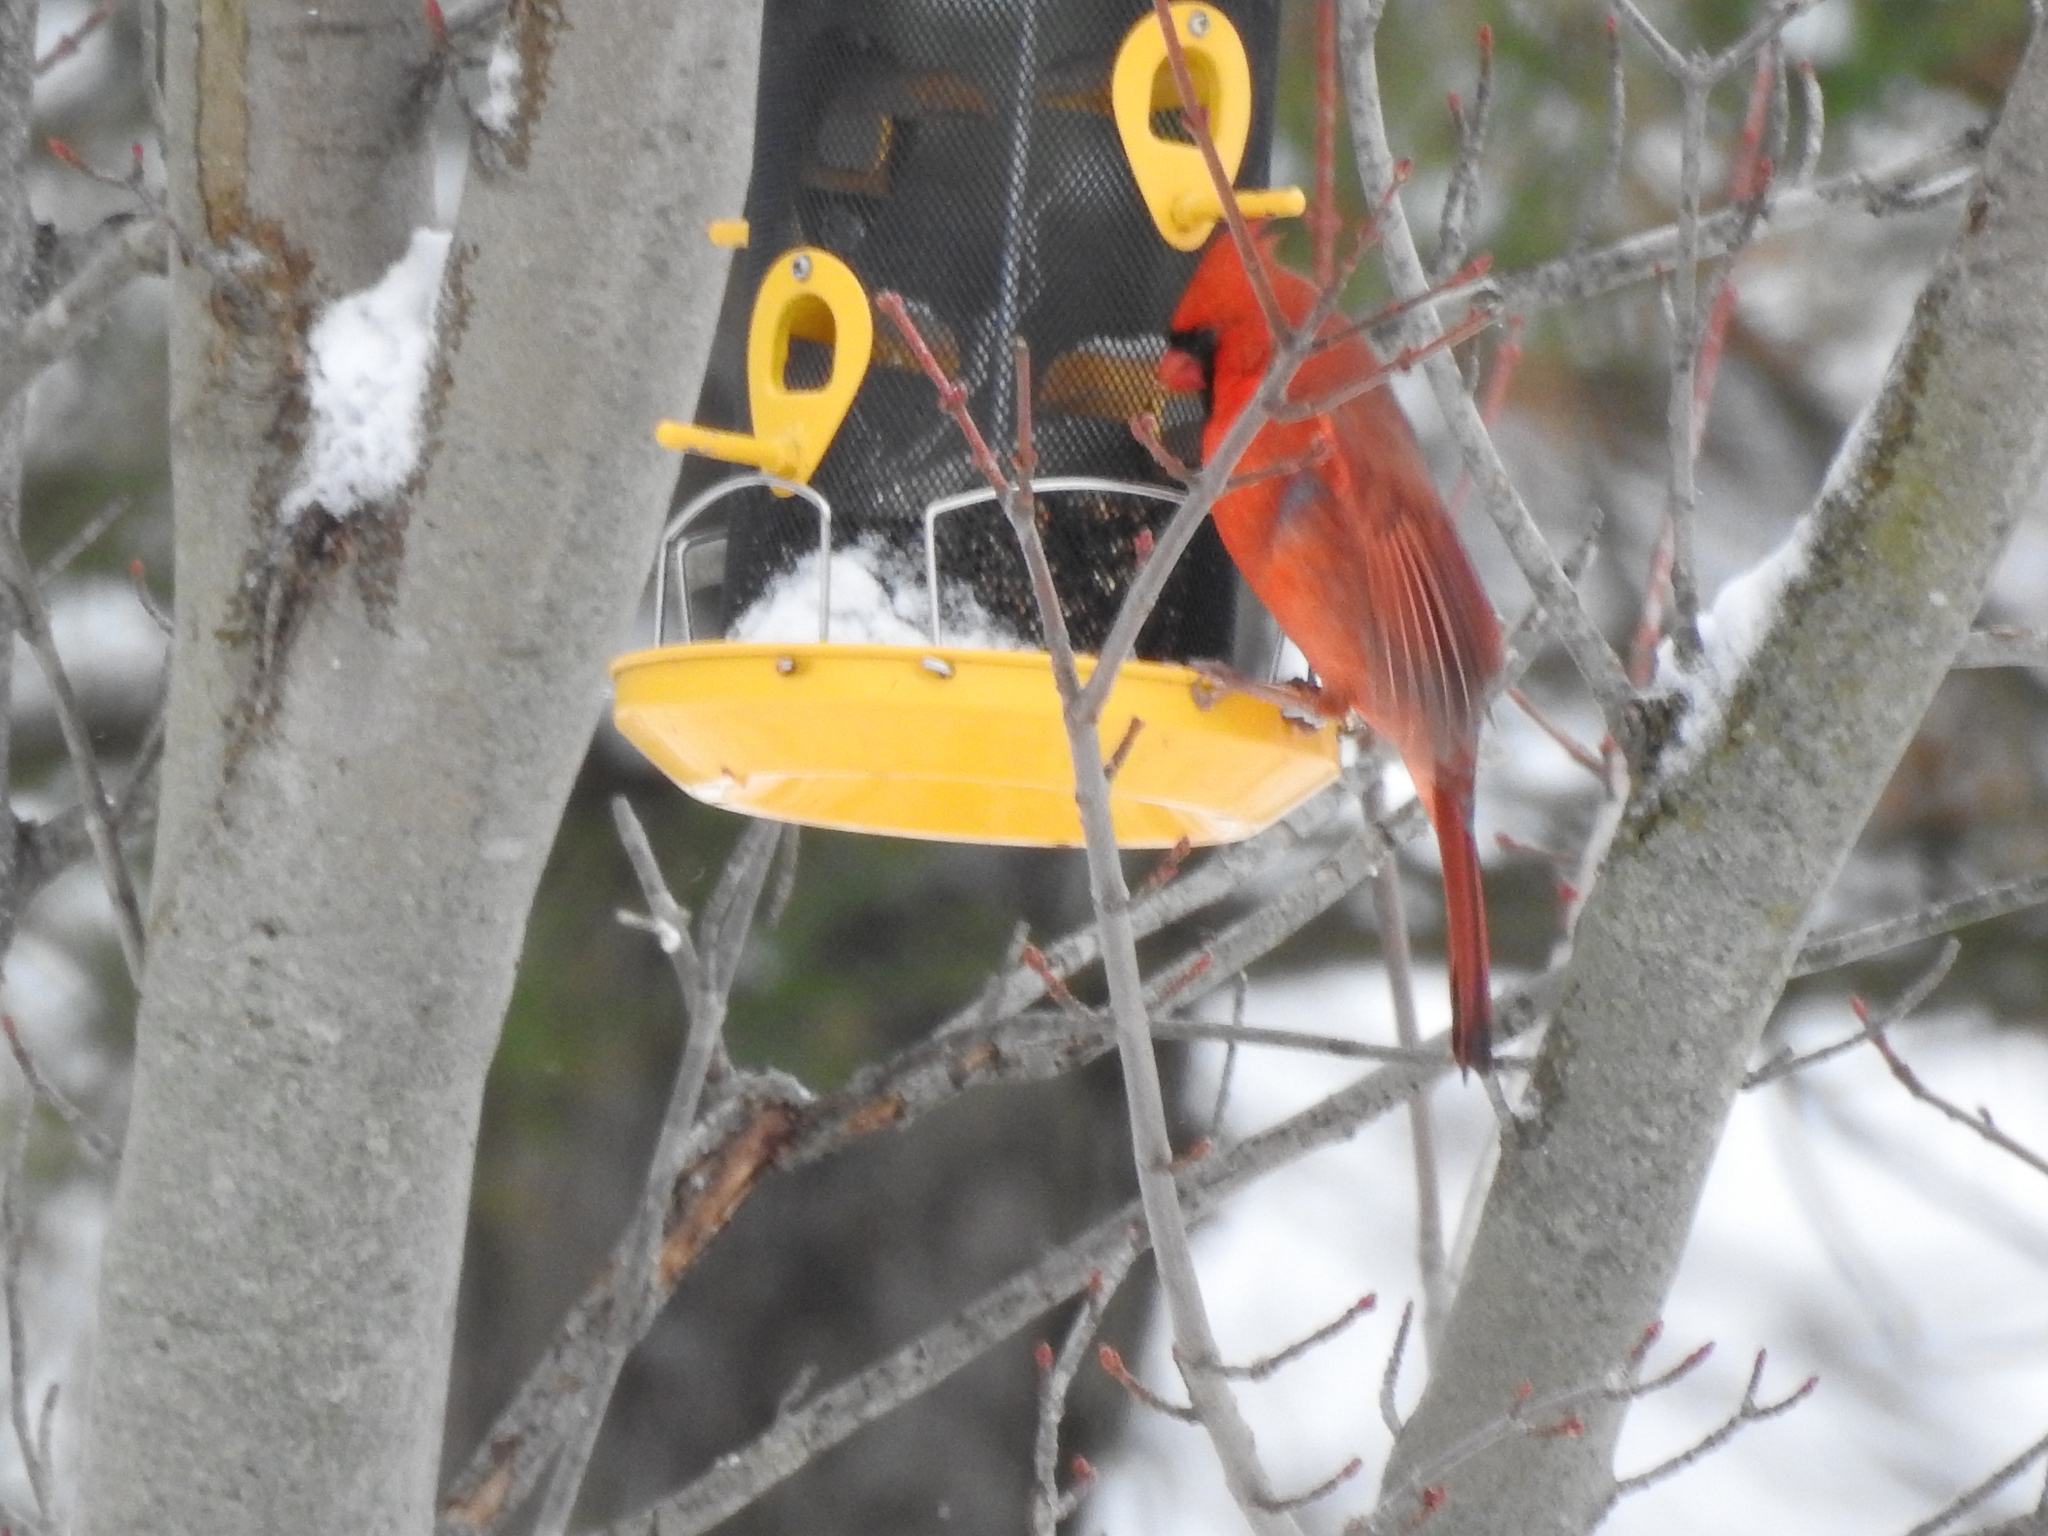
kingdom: Animalia
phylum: Chordata
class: Aves
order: Passeriformes
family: Cardinalidae
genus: Cardinalis
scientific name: Cardinalis cardinalis
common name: Northern cardinal
